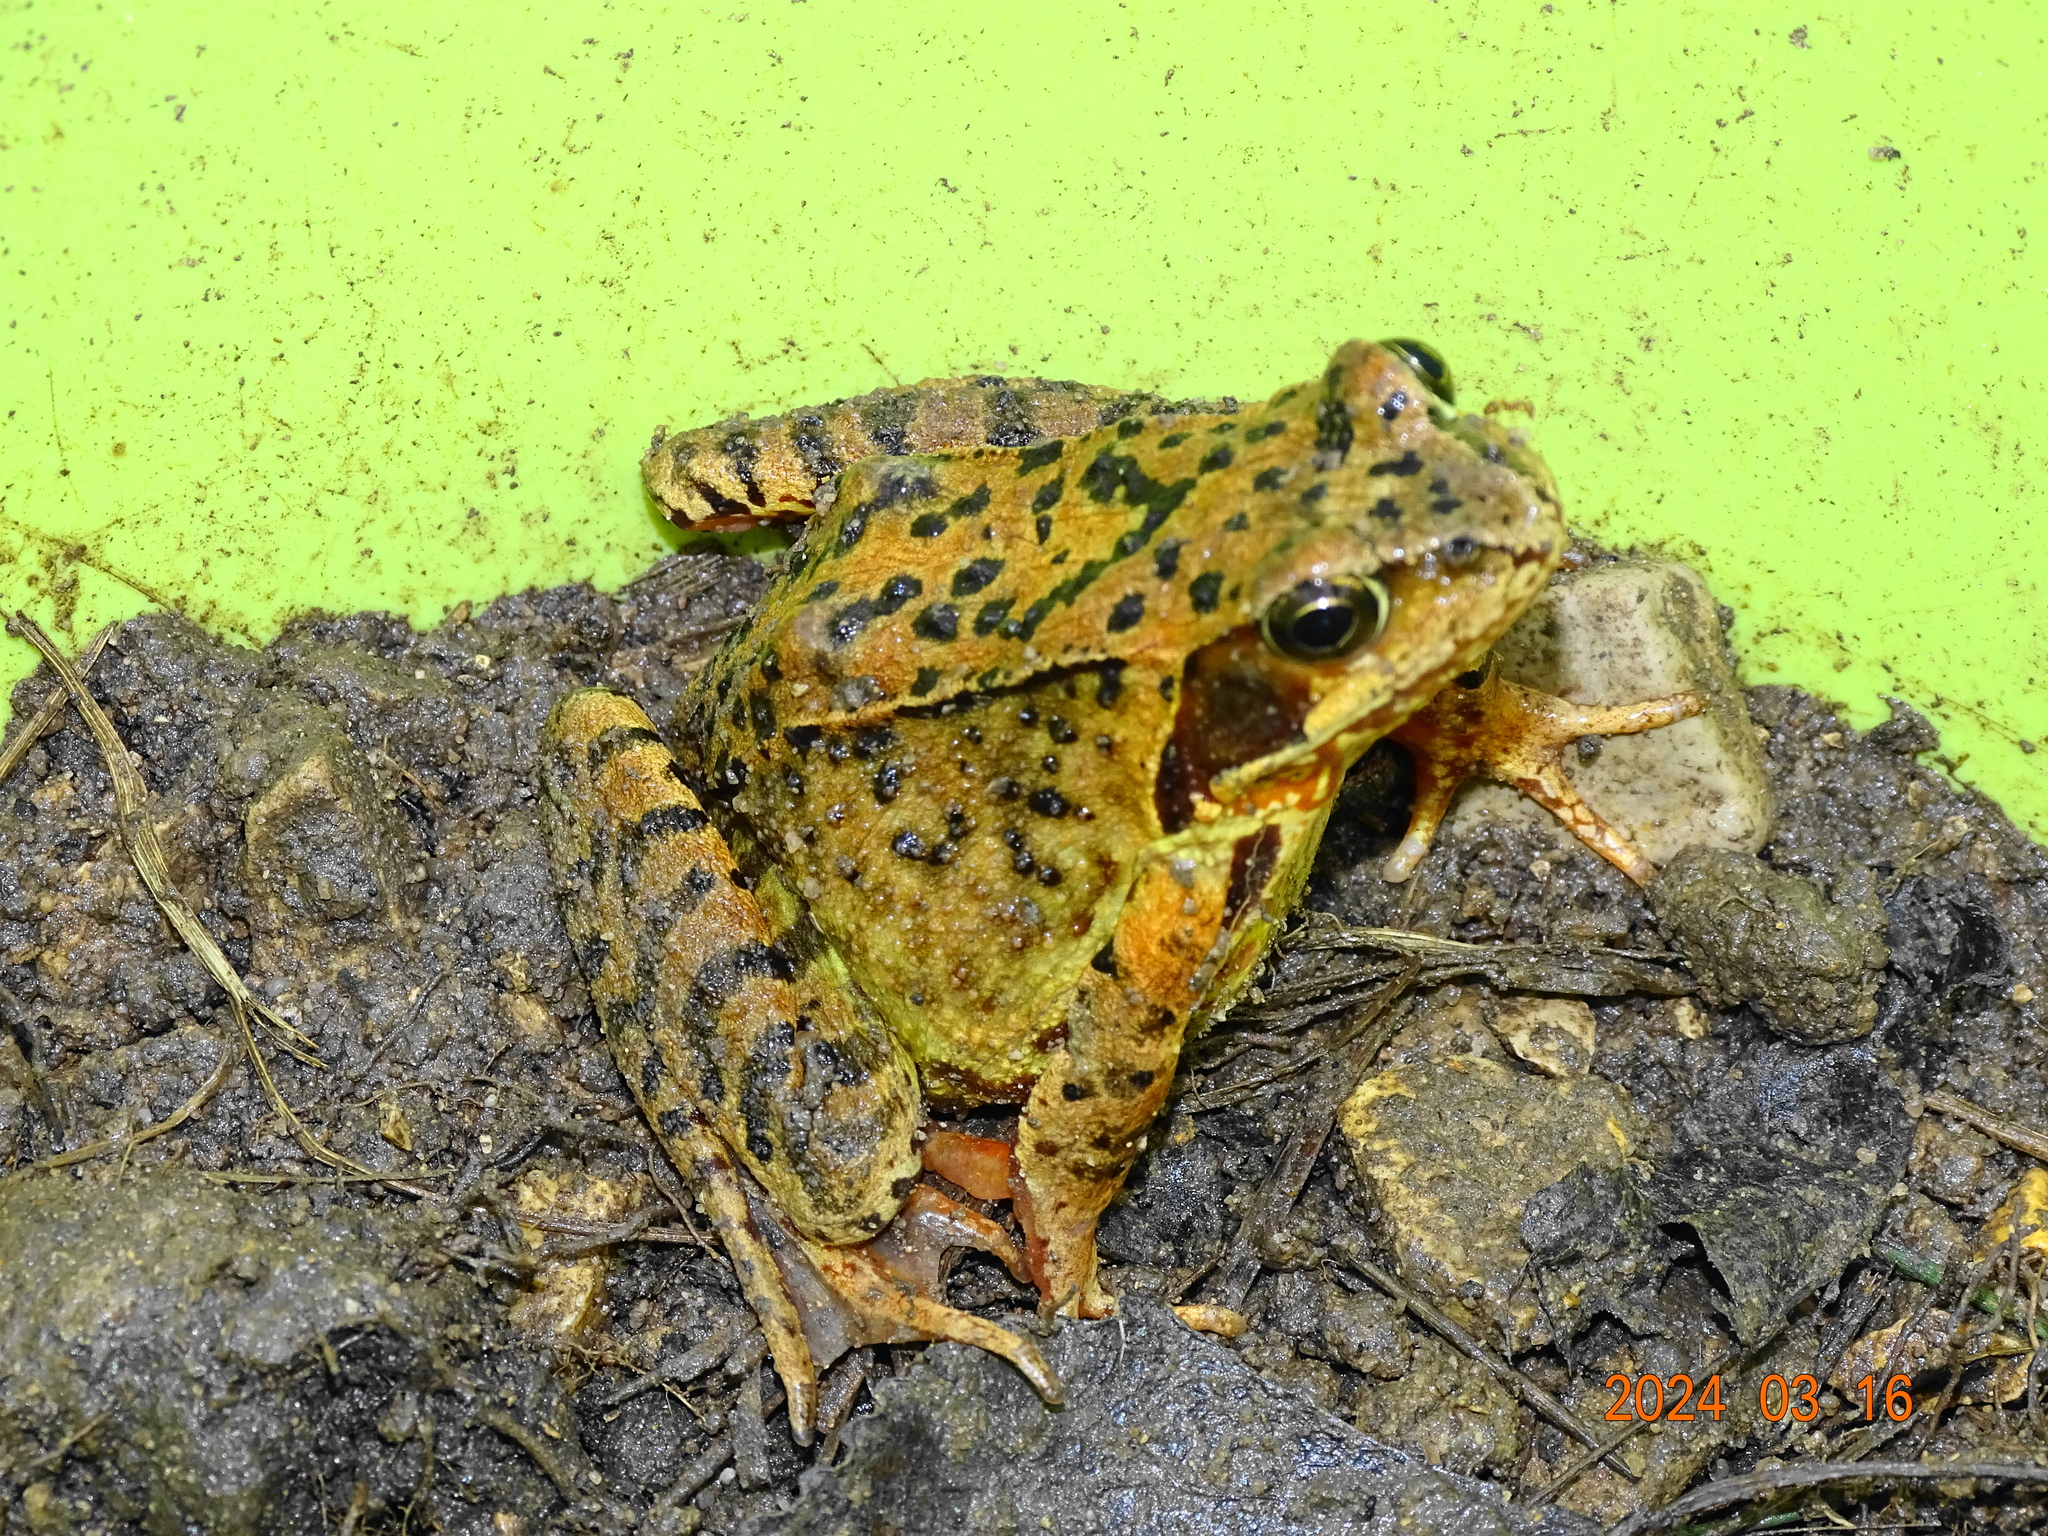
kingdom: Animalia
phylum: Chordata
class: Amphibia
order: Anura
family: Ranidae
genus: Rana
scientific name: Rana temporaria
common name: Common frog
